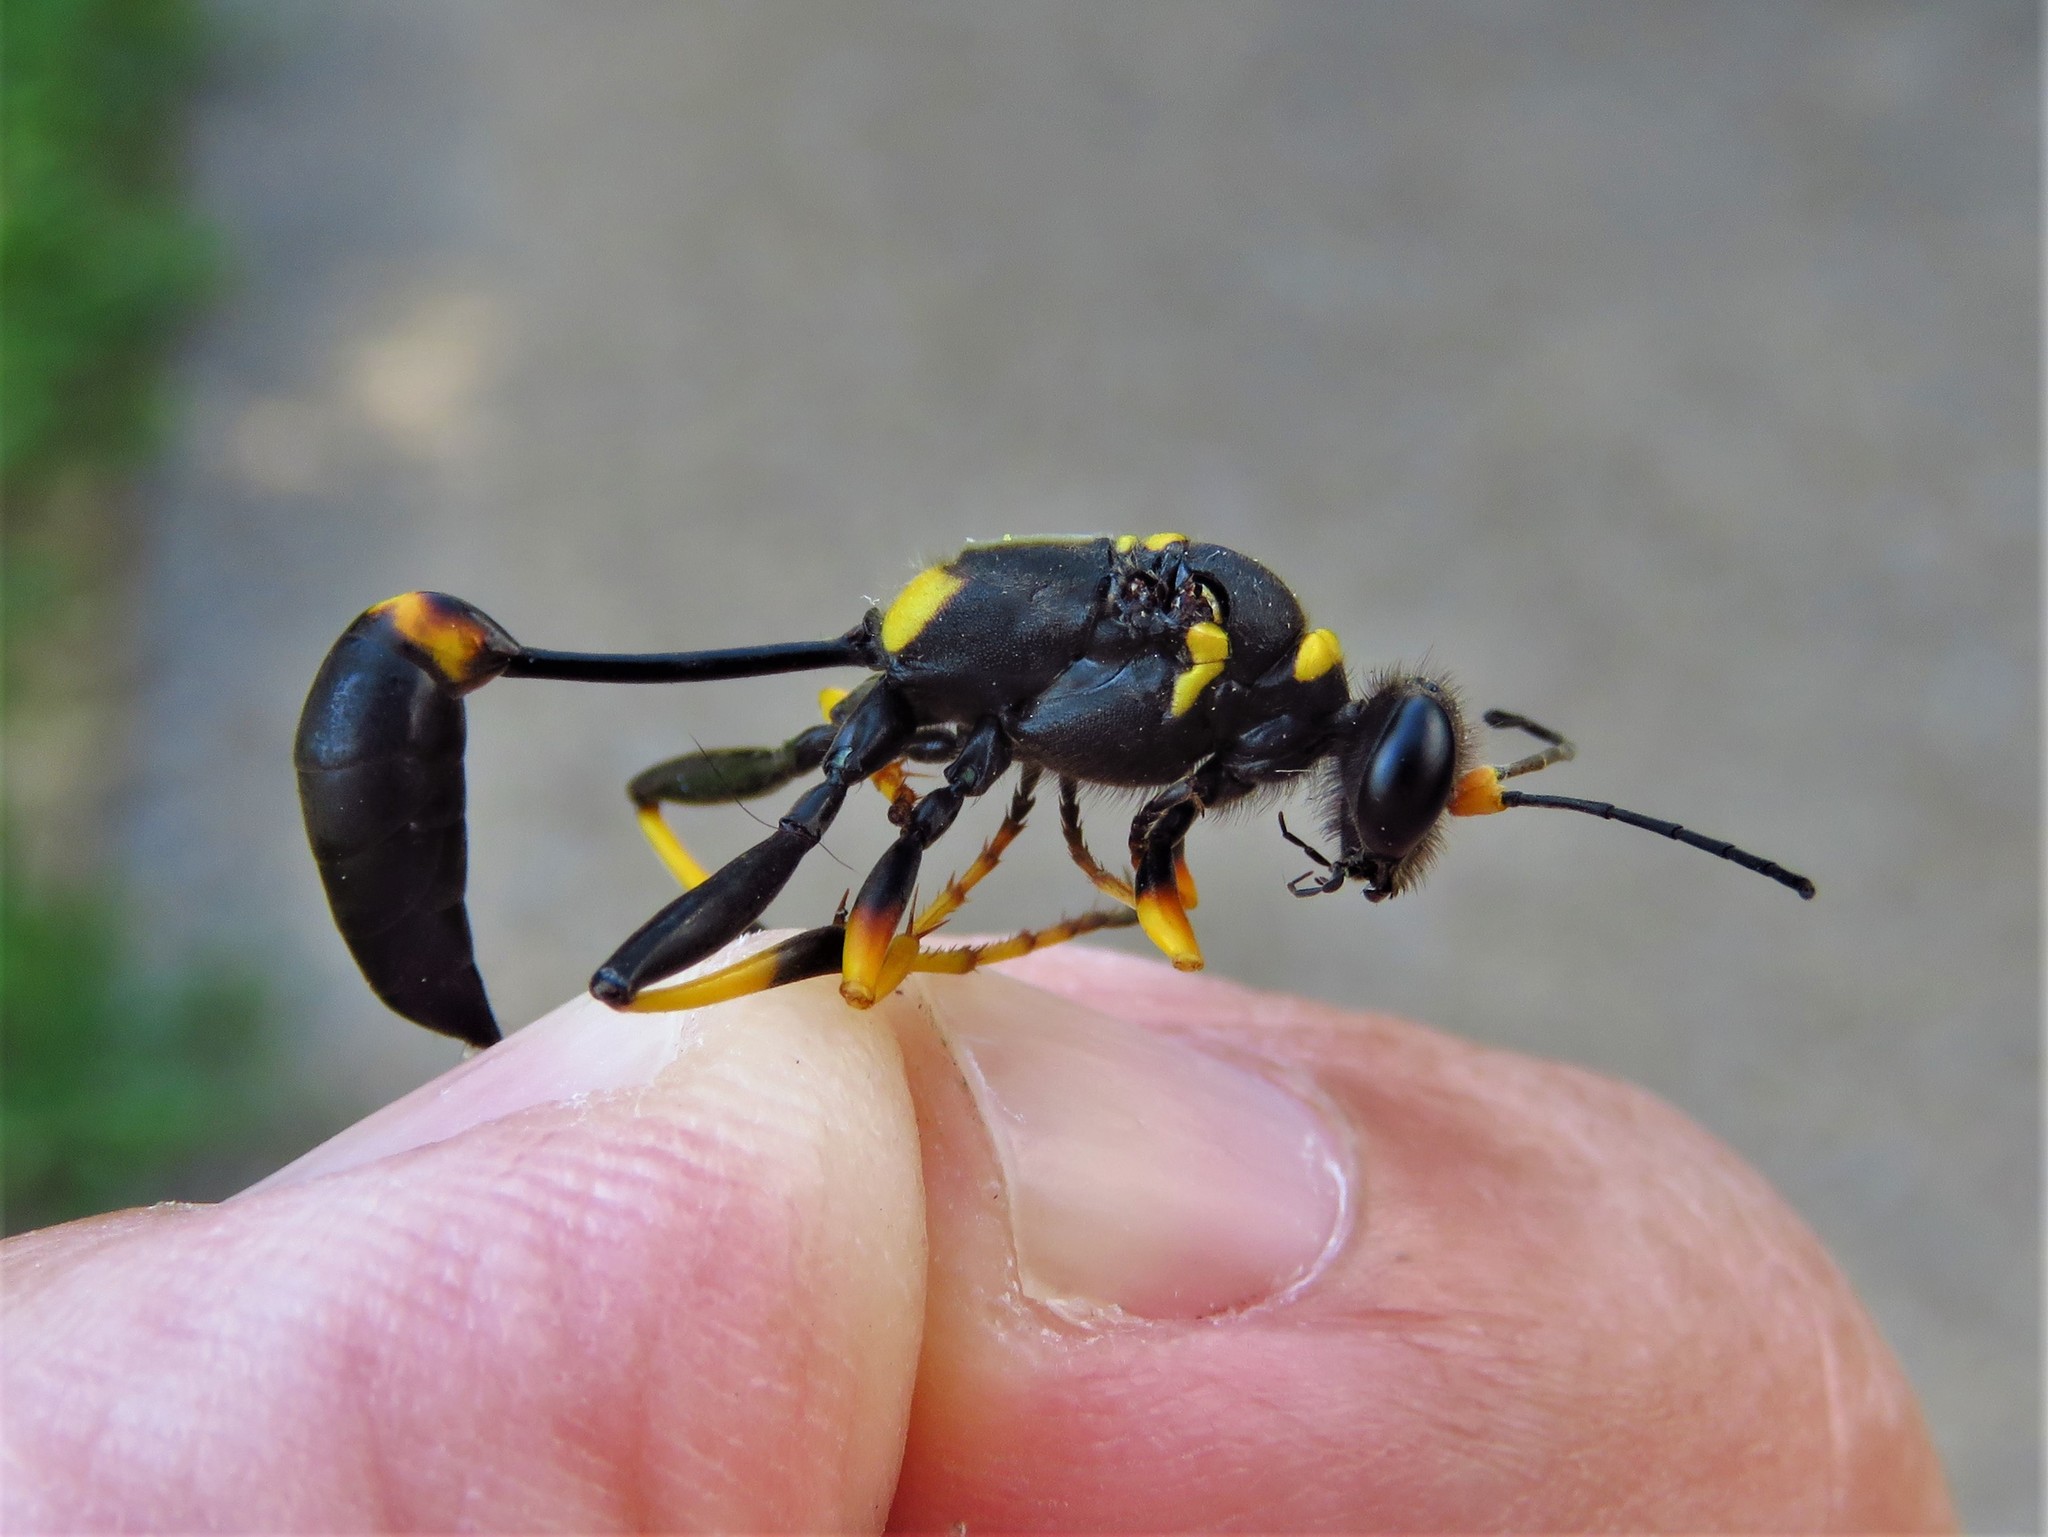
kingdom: Animalia
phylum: Arthropoda
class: Insecta
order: Hymenoptera
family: Sphecidae
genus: Sceliphron
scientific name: Sceliphron caementarium
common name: Mud dauber
